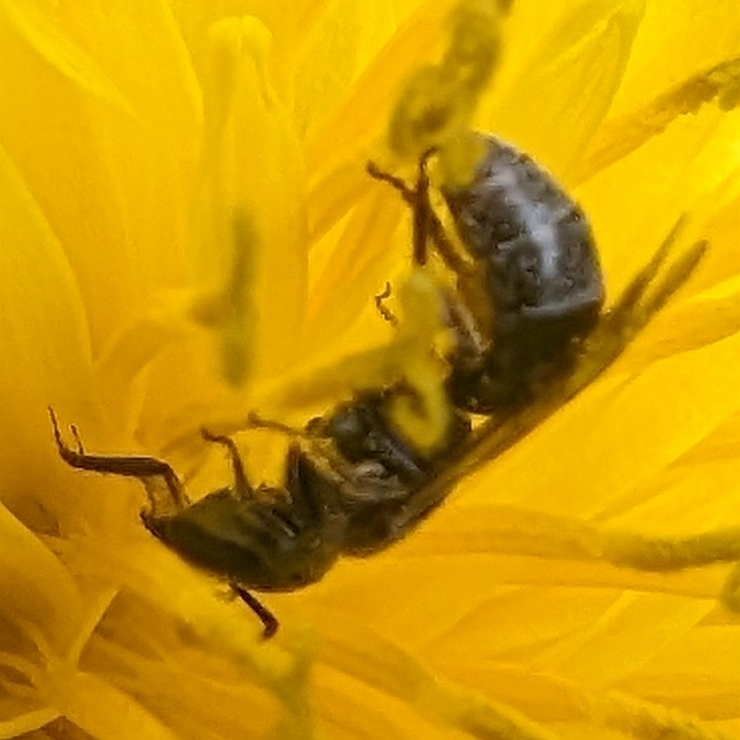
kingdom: Animalia
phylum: Arthropoda
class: Insecta
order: Hymenoptera
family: Halictidae
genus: Dialictus
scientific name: Dialictus
